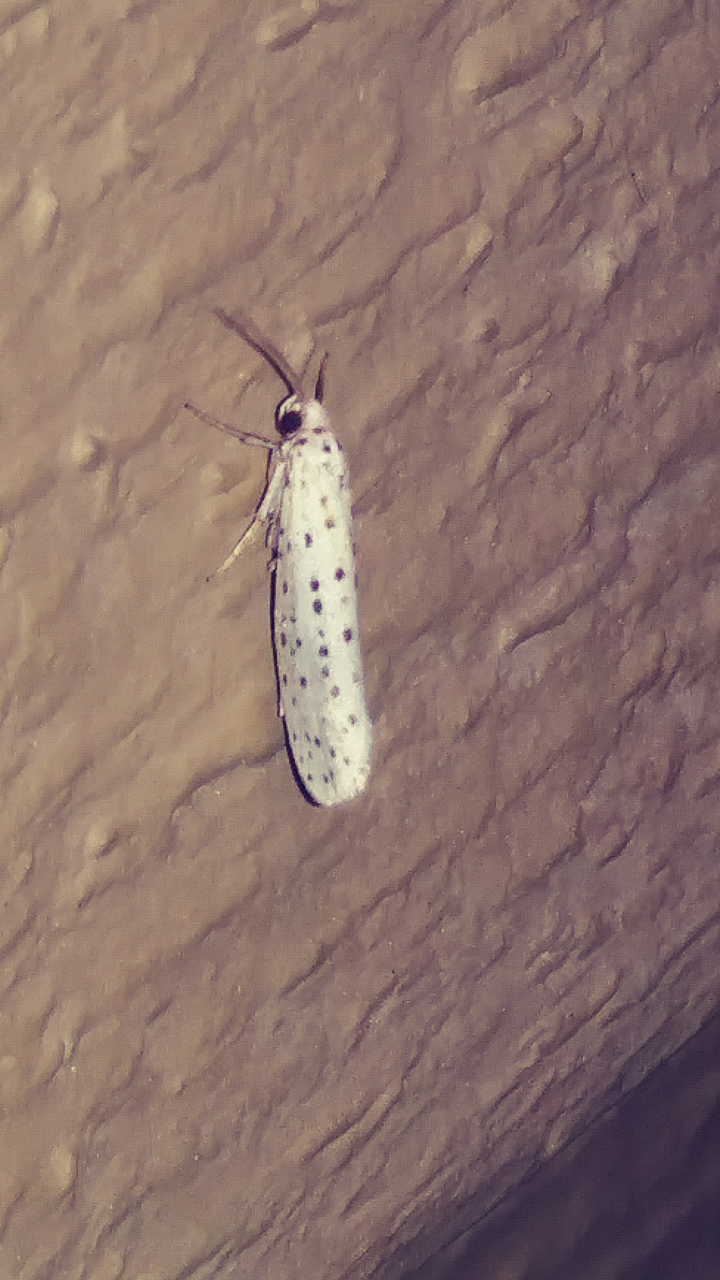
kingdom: Animalia
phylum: Arthropoda
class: Insecta
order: Lepidoptera
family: Yponomeutidae
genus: Yponomeuta
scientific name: Yponomeuta multipunctella
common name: American ermine moth
